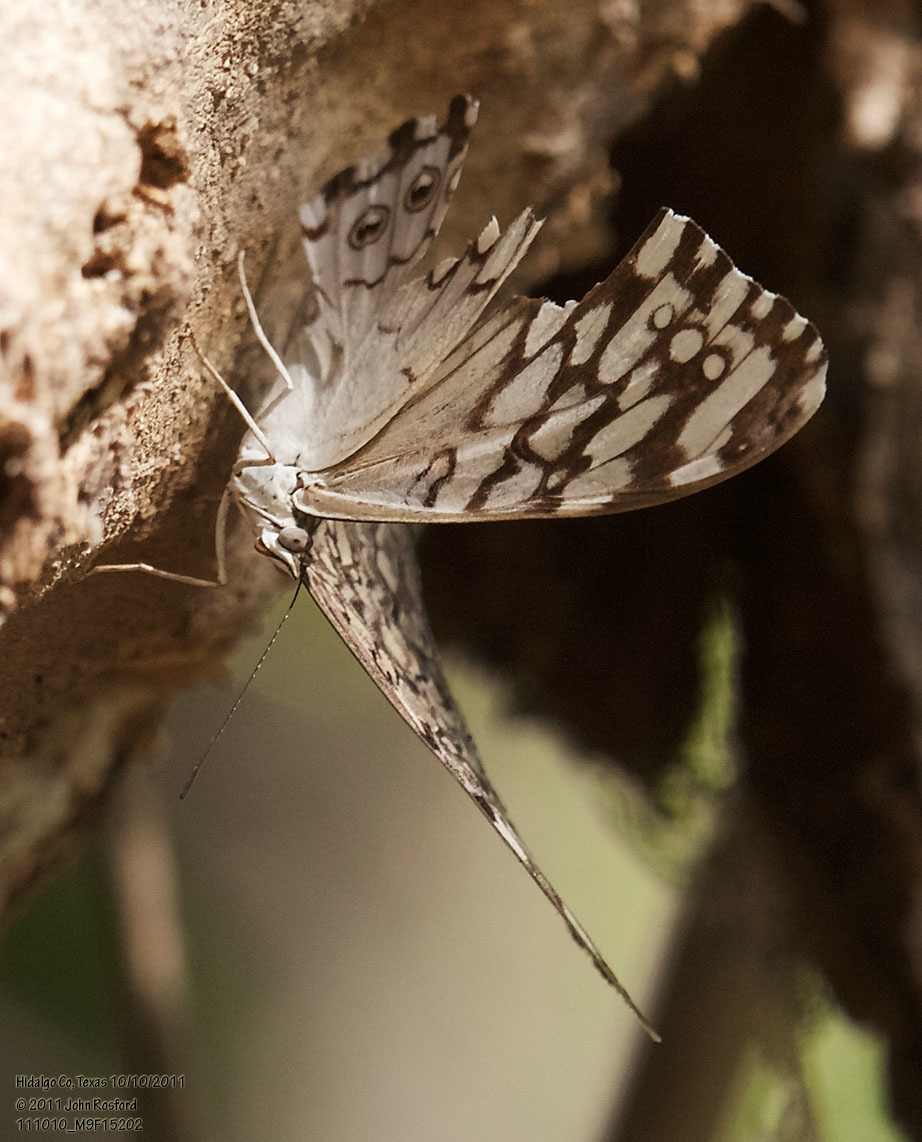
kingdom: Animalia
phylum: Arthropoda
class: Insecta
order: Lepidoptera
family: Nymphalidae
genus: Hamadryas
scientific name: Hamadryas februa
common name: Gray cracker
